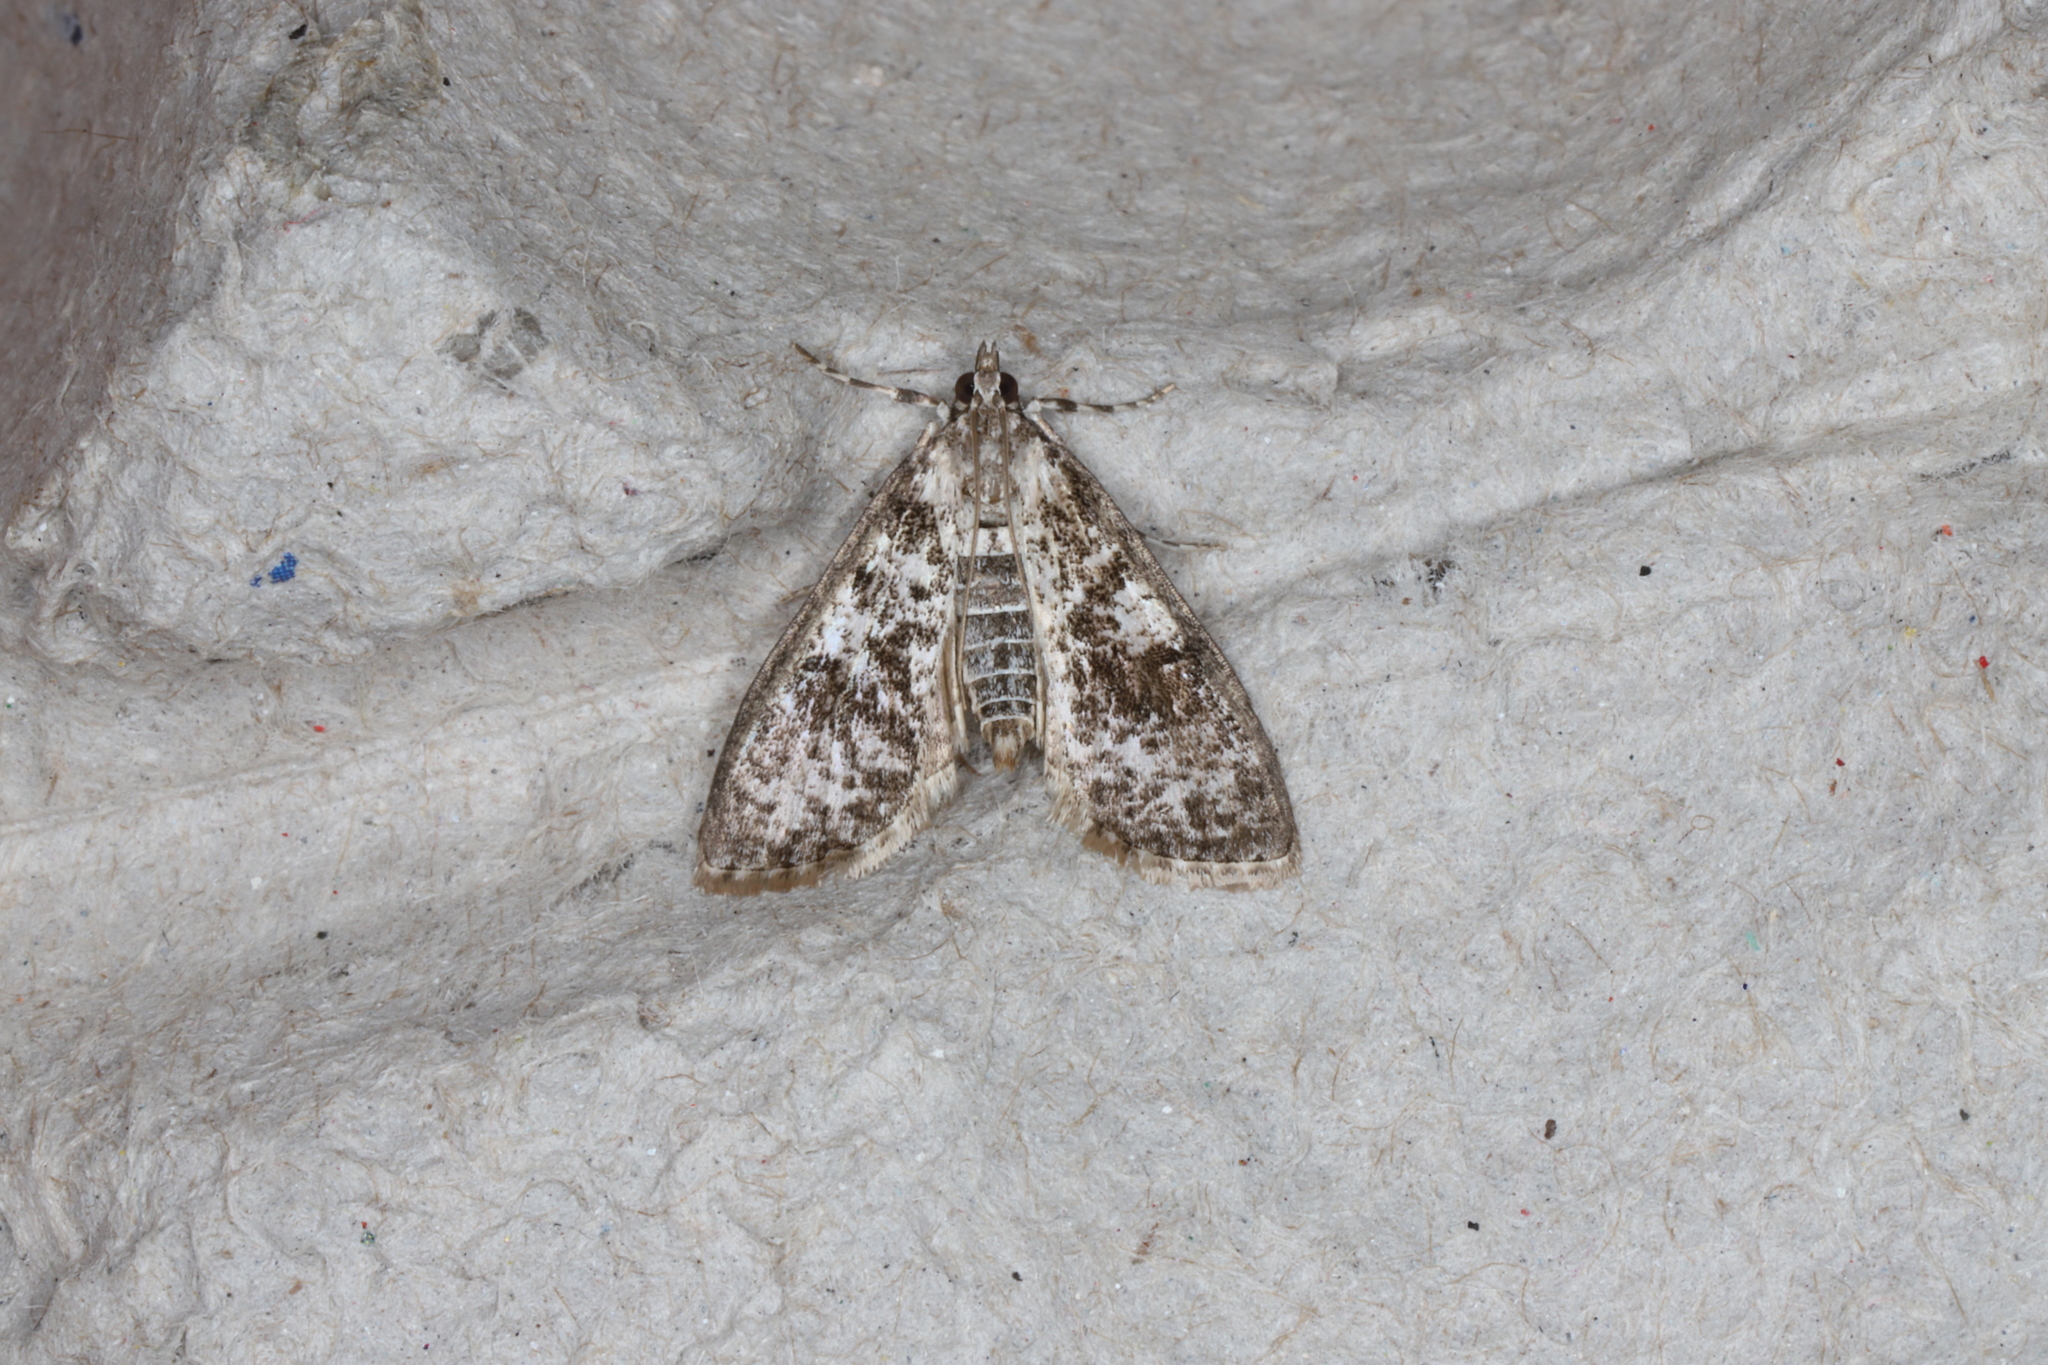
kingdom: Animalia
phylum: Arthropoda
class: Insecta
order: Lepidoptera
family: Crambidae
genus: Palpita
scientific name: Palpita magniferalis
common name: Splendid palpita moth
